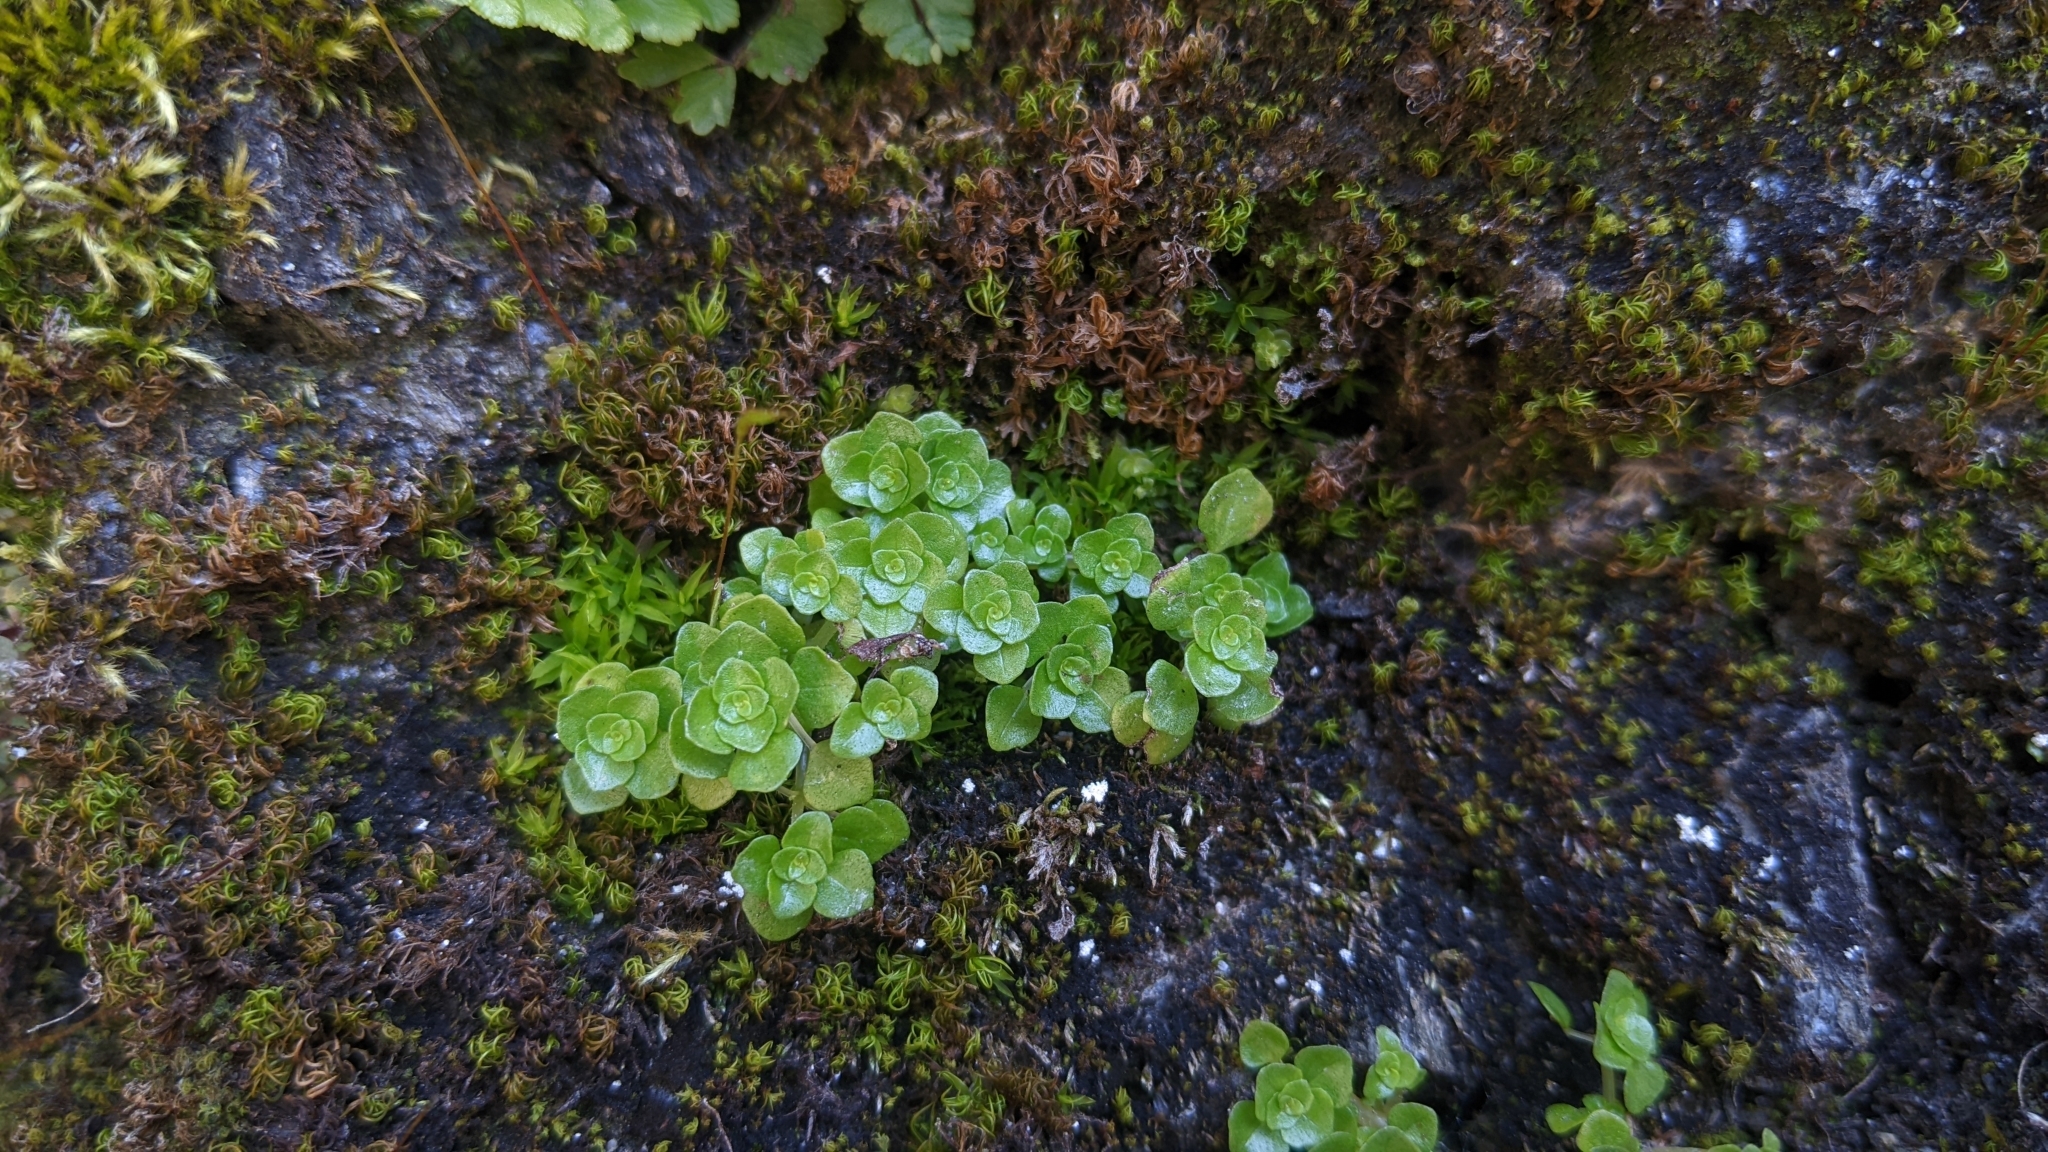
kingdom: Plantae
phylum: Tracheophyta
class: Magnoliopsida
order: Rosales
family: Urticaceae
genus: Pilea
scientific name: Pilea peploides
